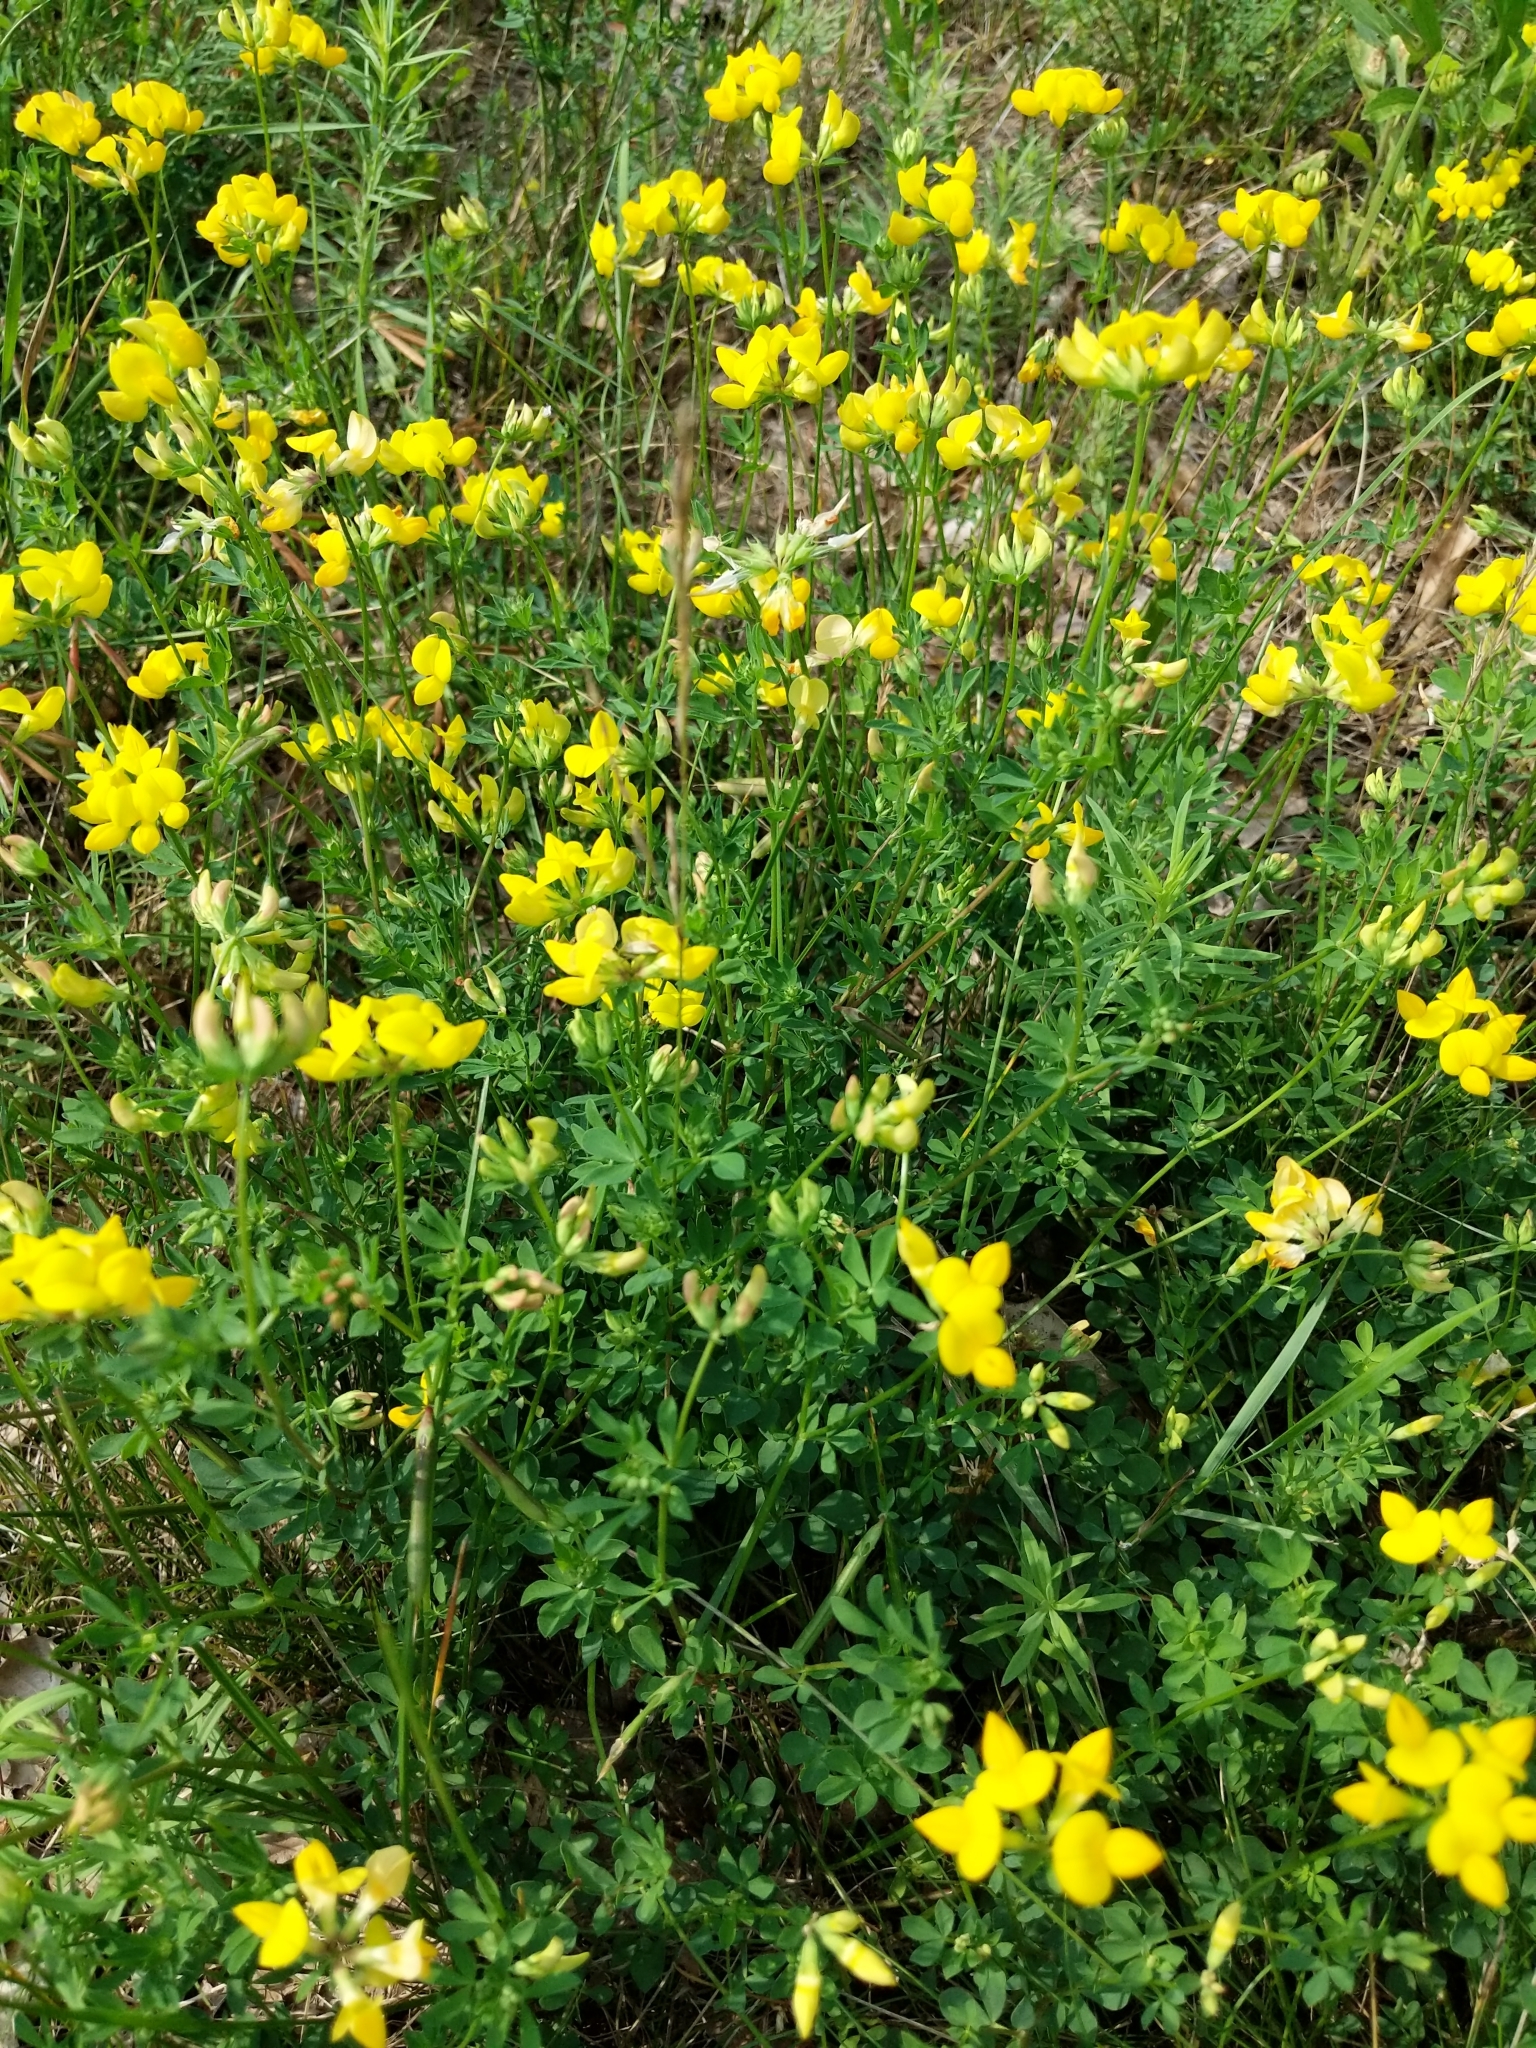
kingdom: Plantae
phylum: Tracheophyta
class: Magnoliopsida
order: Fabales
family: Fabaceae
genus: Lotus
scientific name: Lotus corniculatus
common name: Common bird's-foot-trefoil
